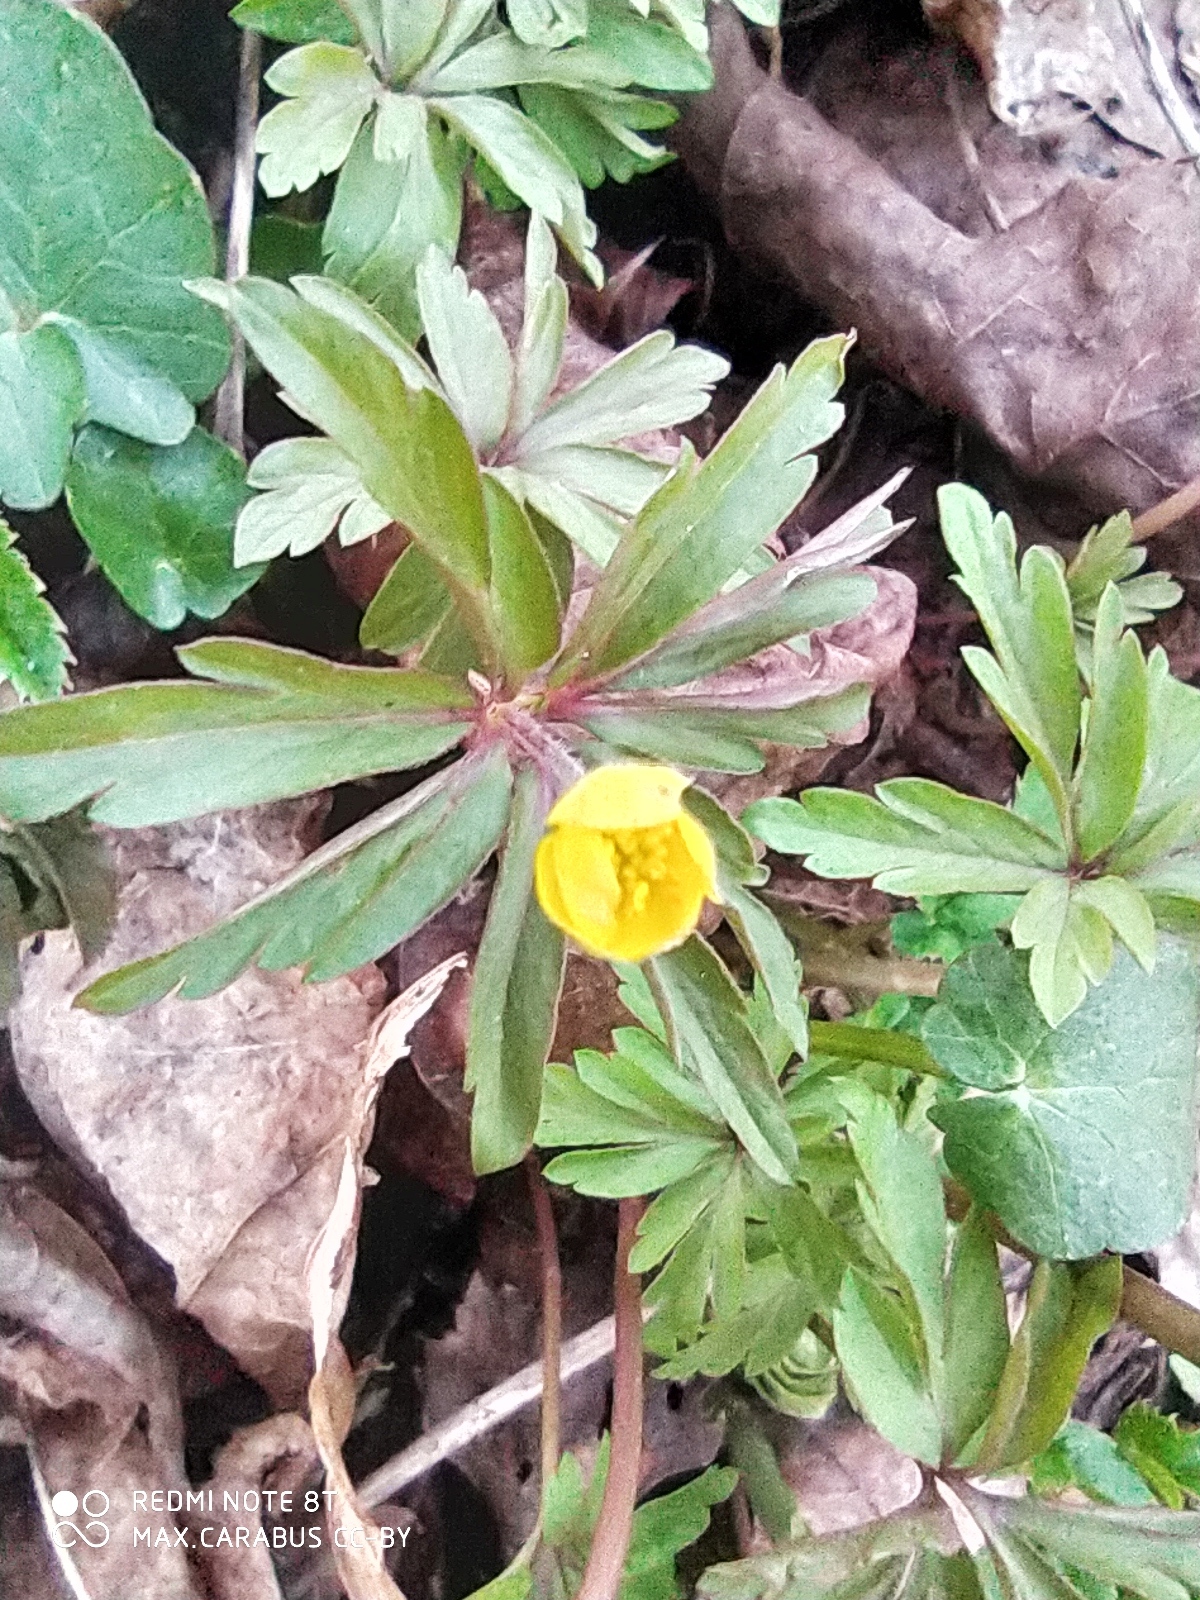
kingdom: Plantae
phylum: Tracheophyta
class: Magnoliopsida
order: Ranunculales
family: Ranunculaceae
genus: Anemone
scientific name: Anemone ranunculoides
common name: Yellow anemone
